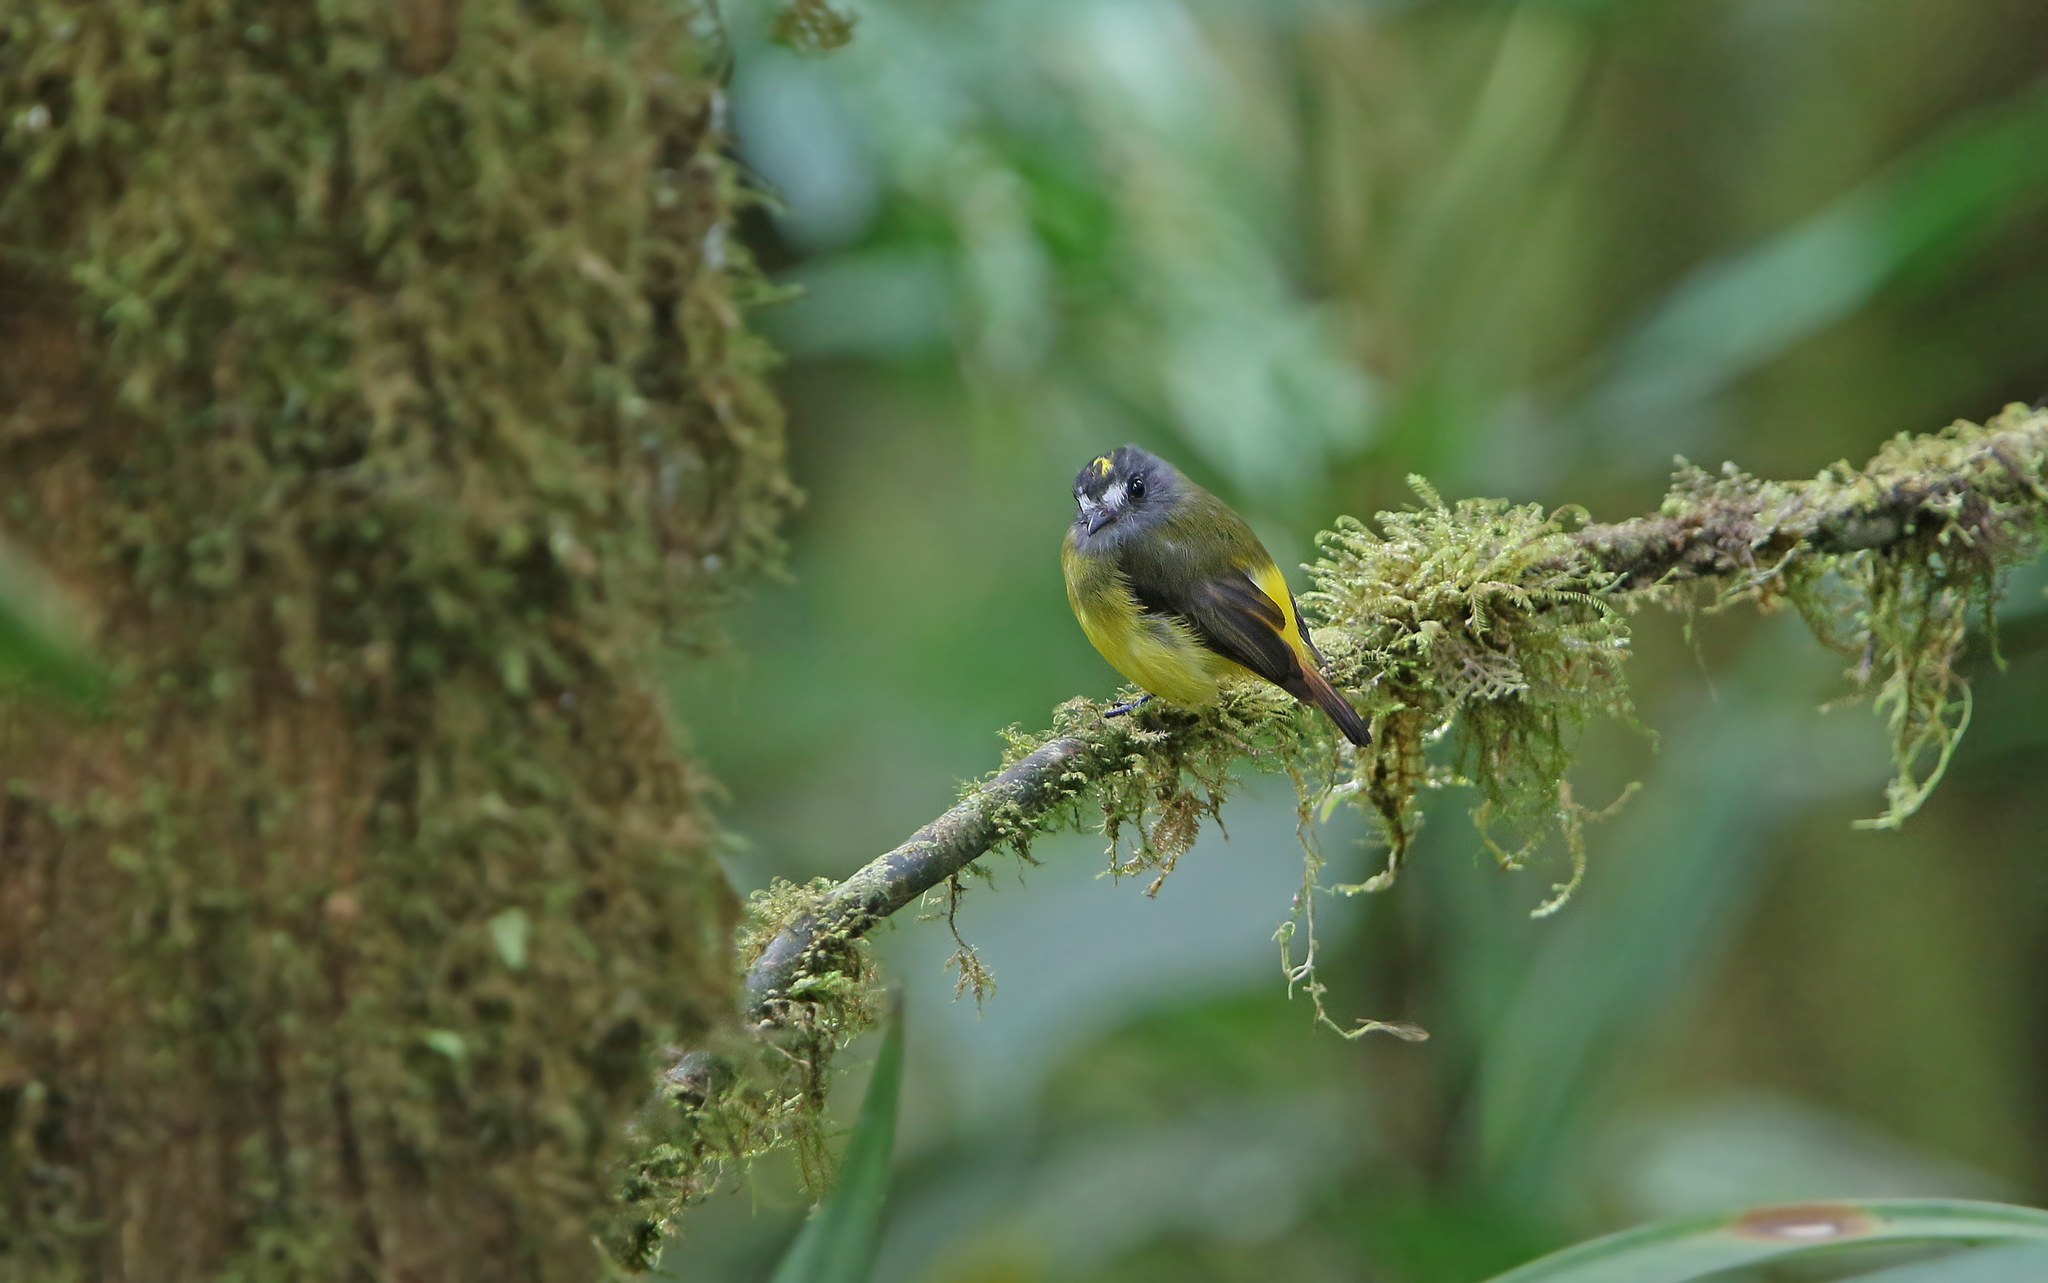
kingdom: Animalia
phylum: Chordata
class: Aves
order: Passeriformes
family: Tyrannidae
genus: Myiotriccus
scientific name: Myiotriccus ornatus
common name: Ornate flycatcher
